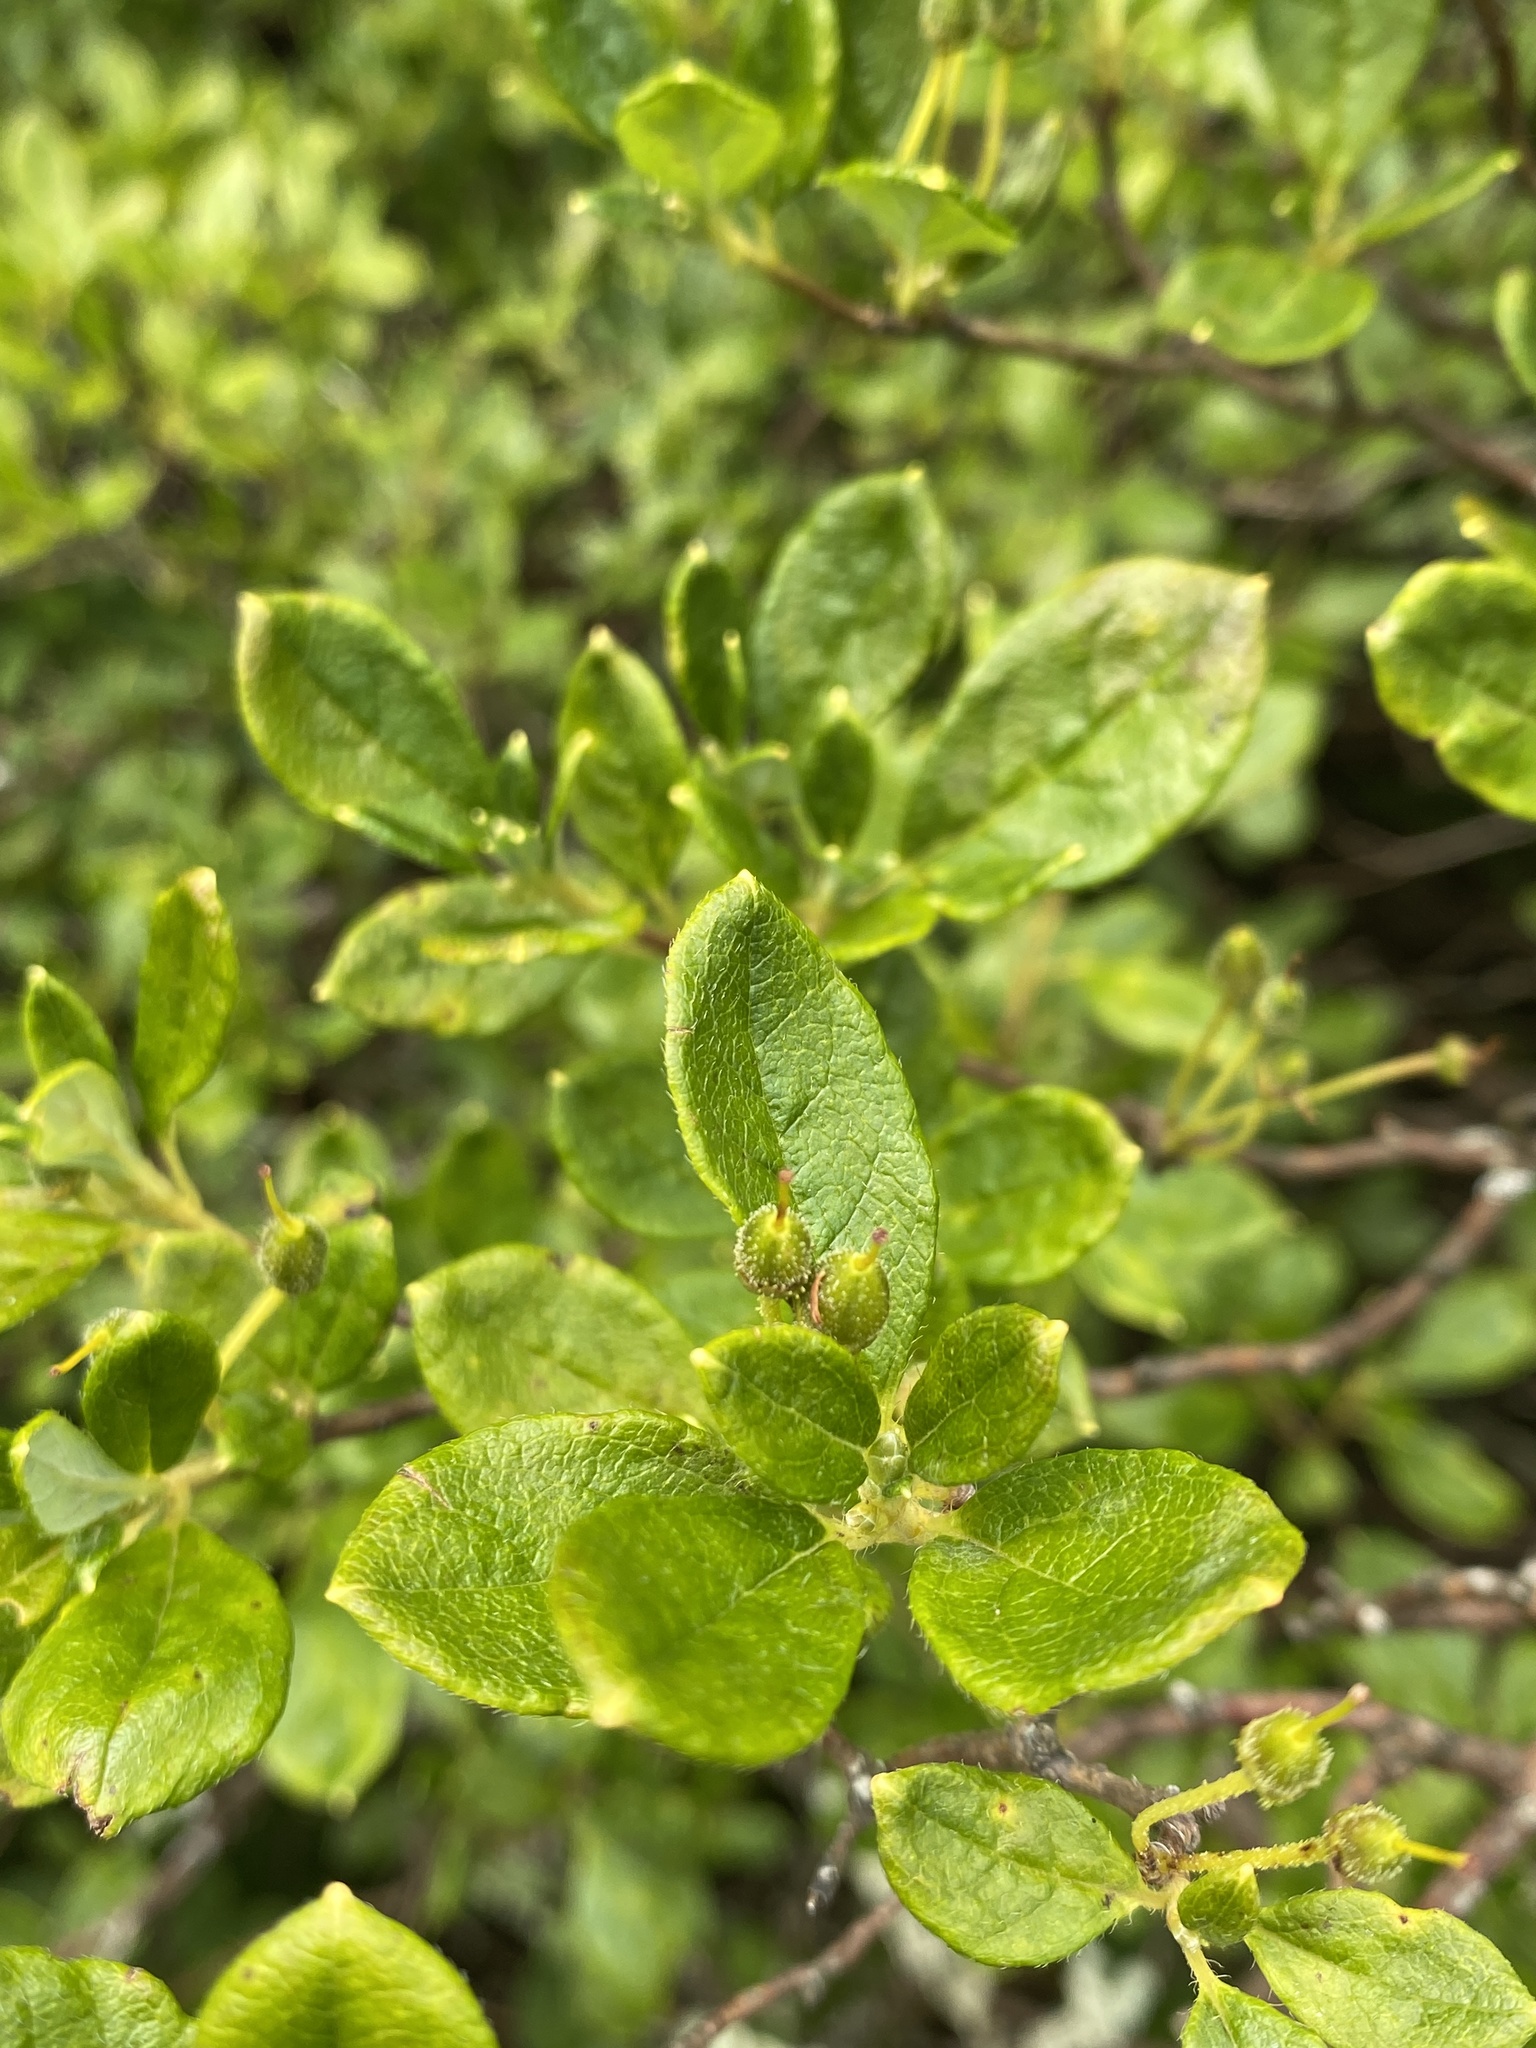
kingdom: Plantae
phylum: Tracheophyta
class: Magnoliopsida
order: Ericales
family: Ericaceae
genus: Rhododendron
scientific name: Rhododendron pilosum
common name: Hairy minniebush
